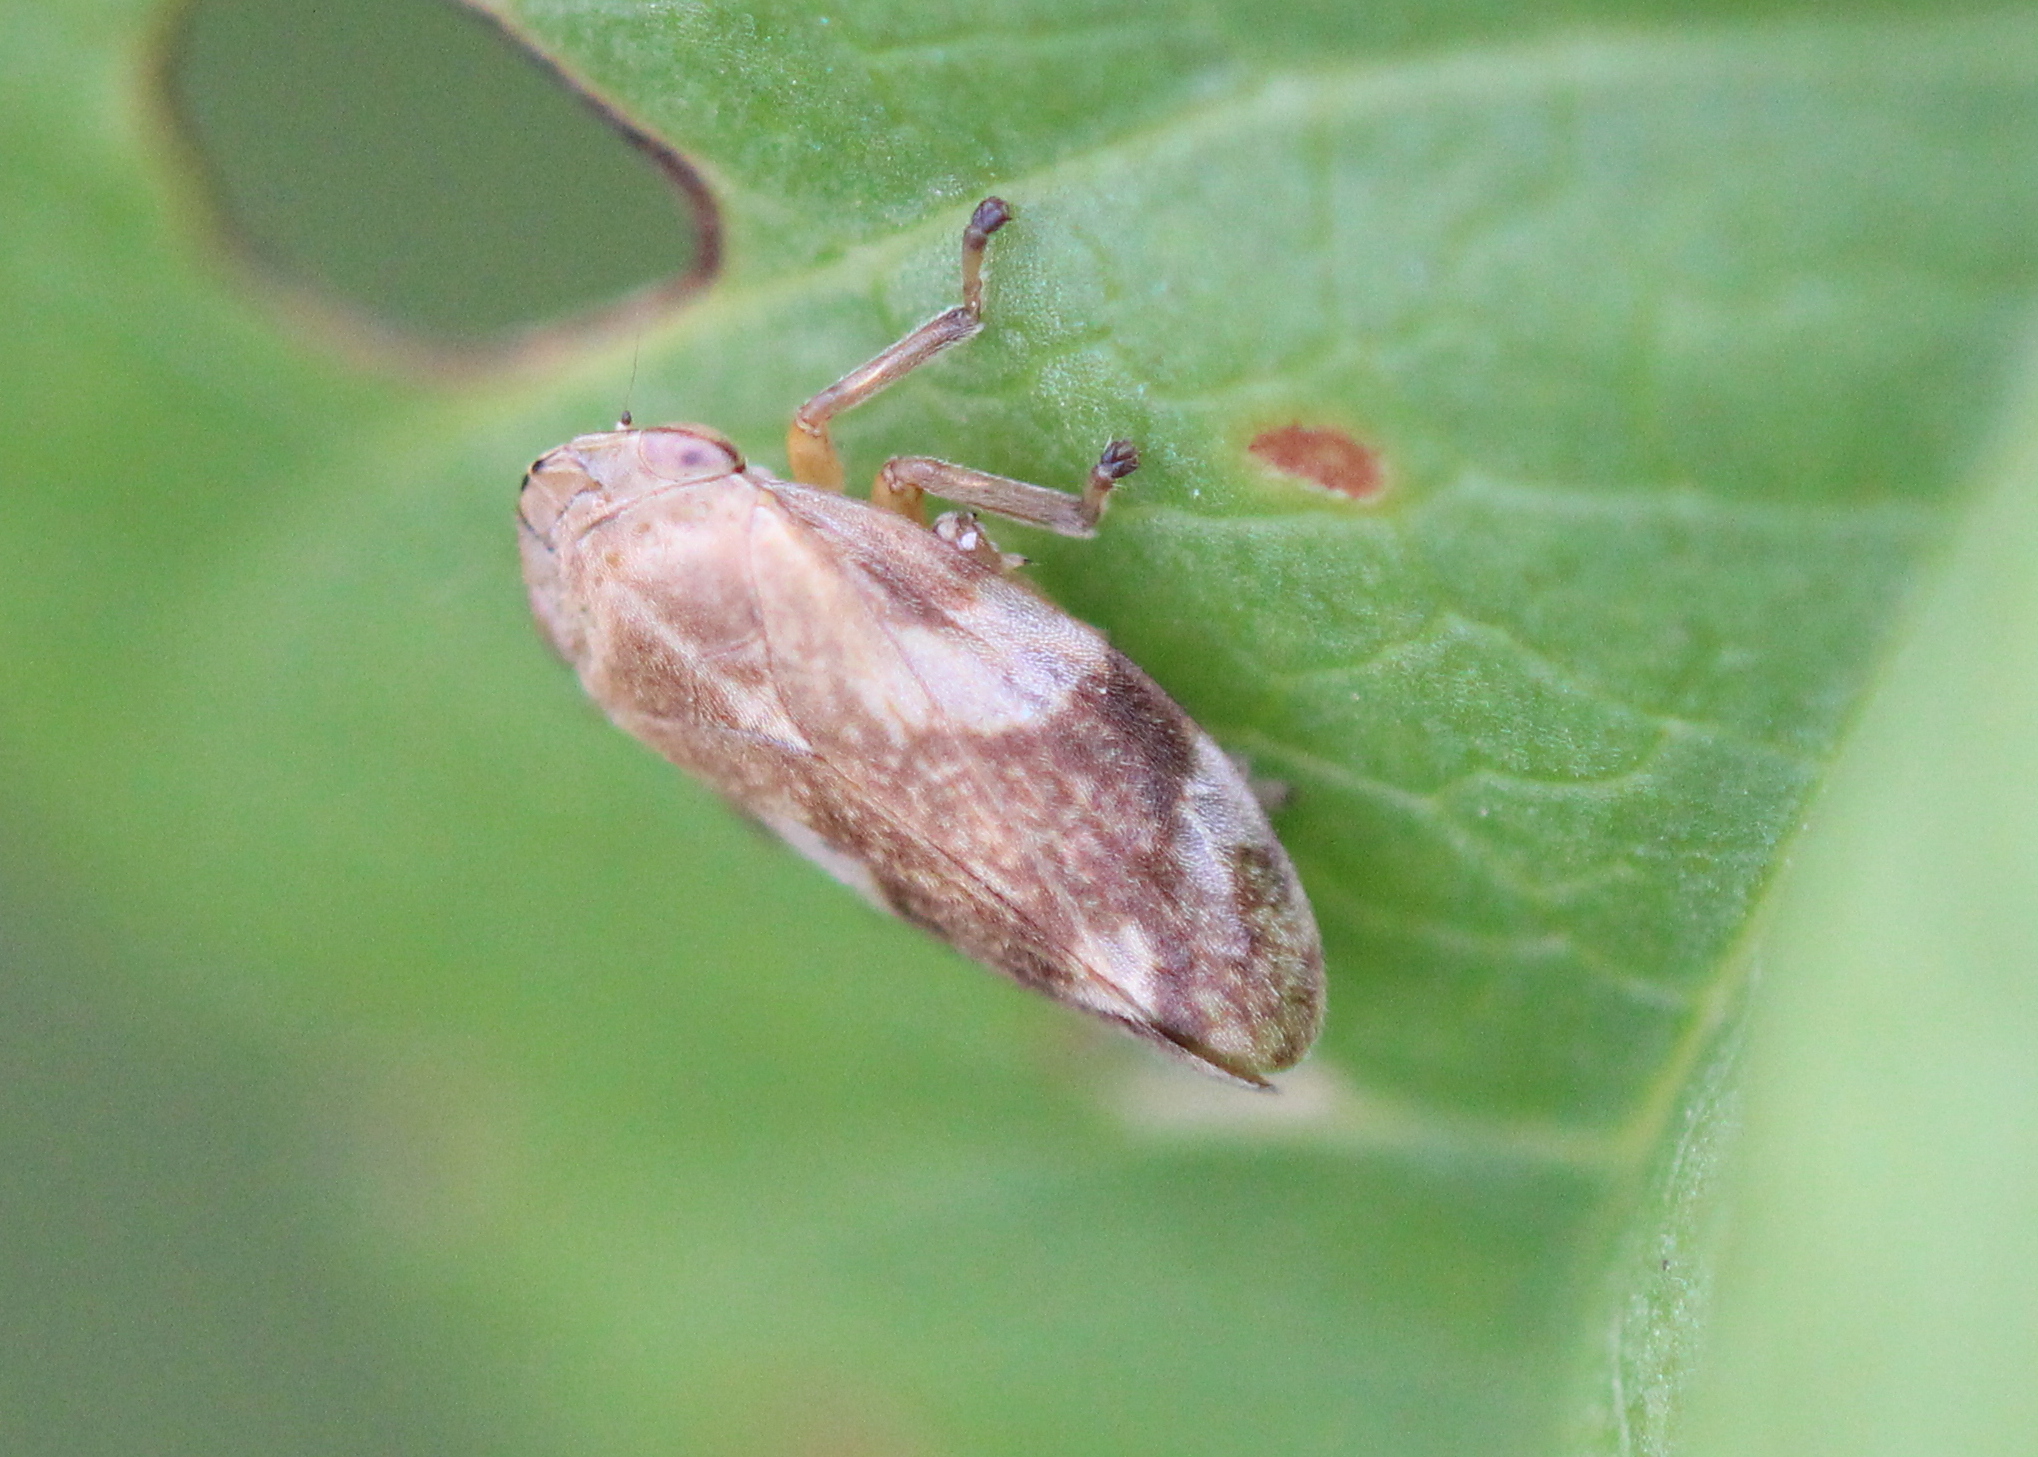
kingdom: Animalia
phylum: Arthropoda
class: Insecta
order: Hemiptera
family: Aphrophoridae
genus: Philaenus
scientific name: Philaenus spumarius
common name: Meadow spittlebug
